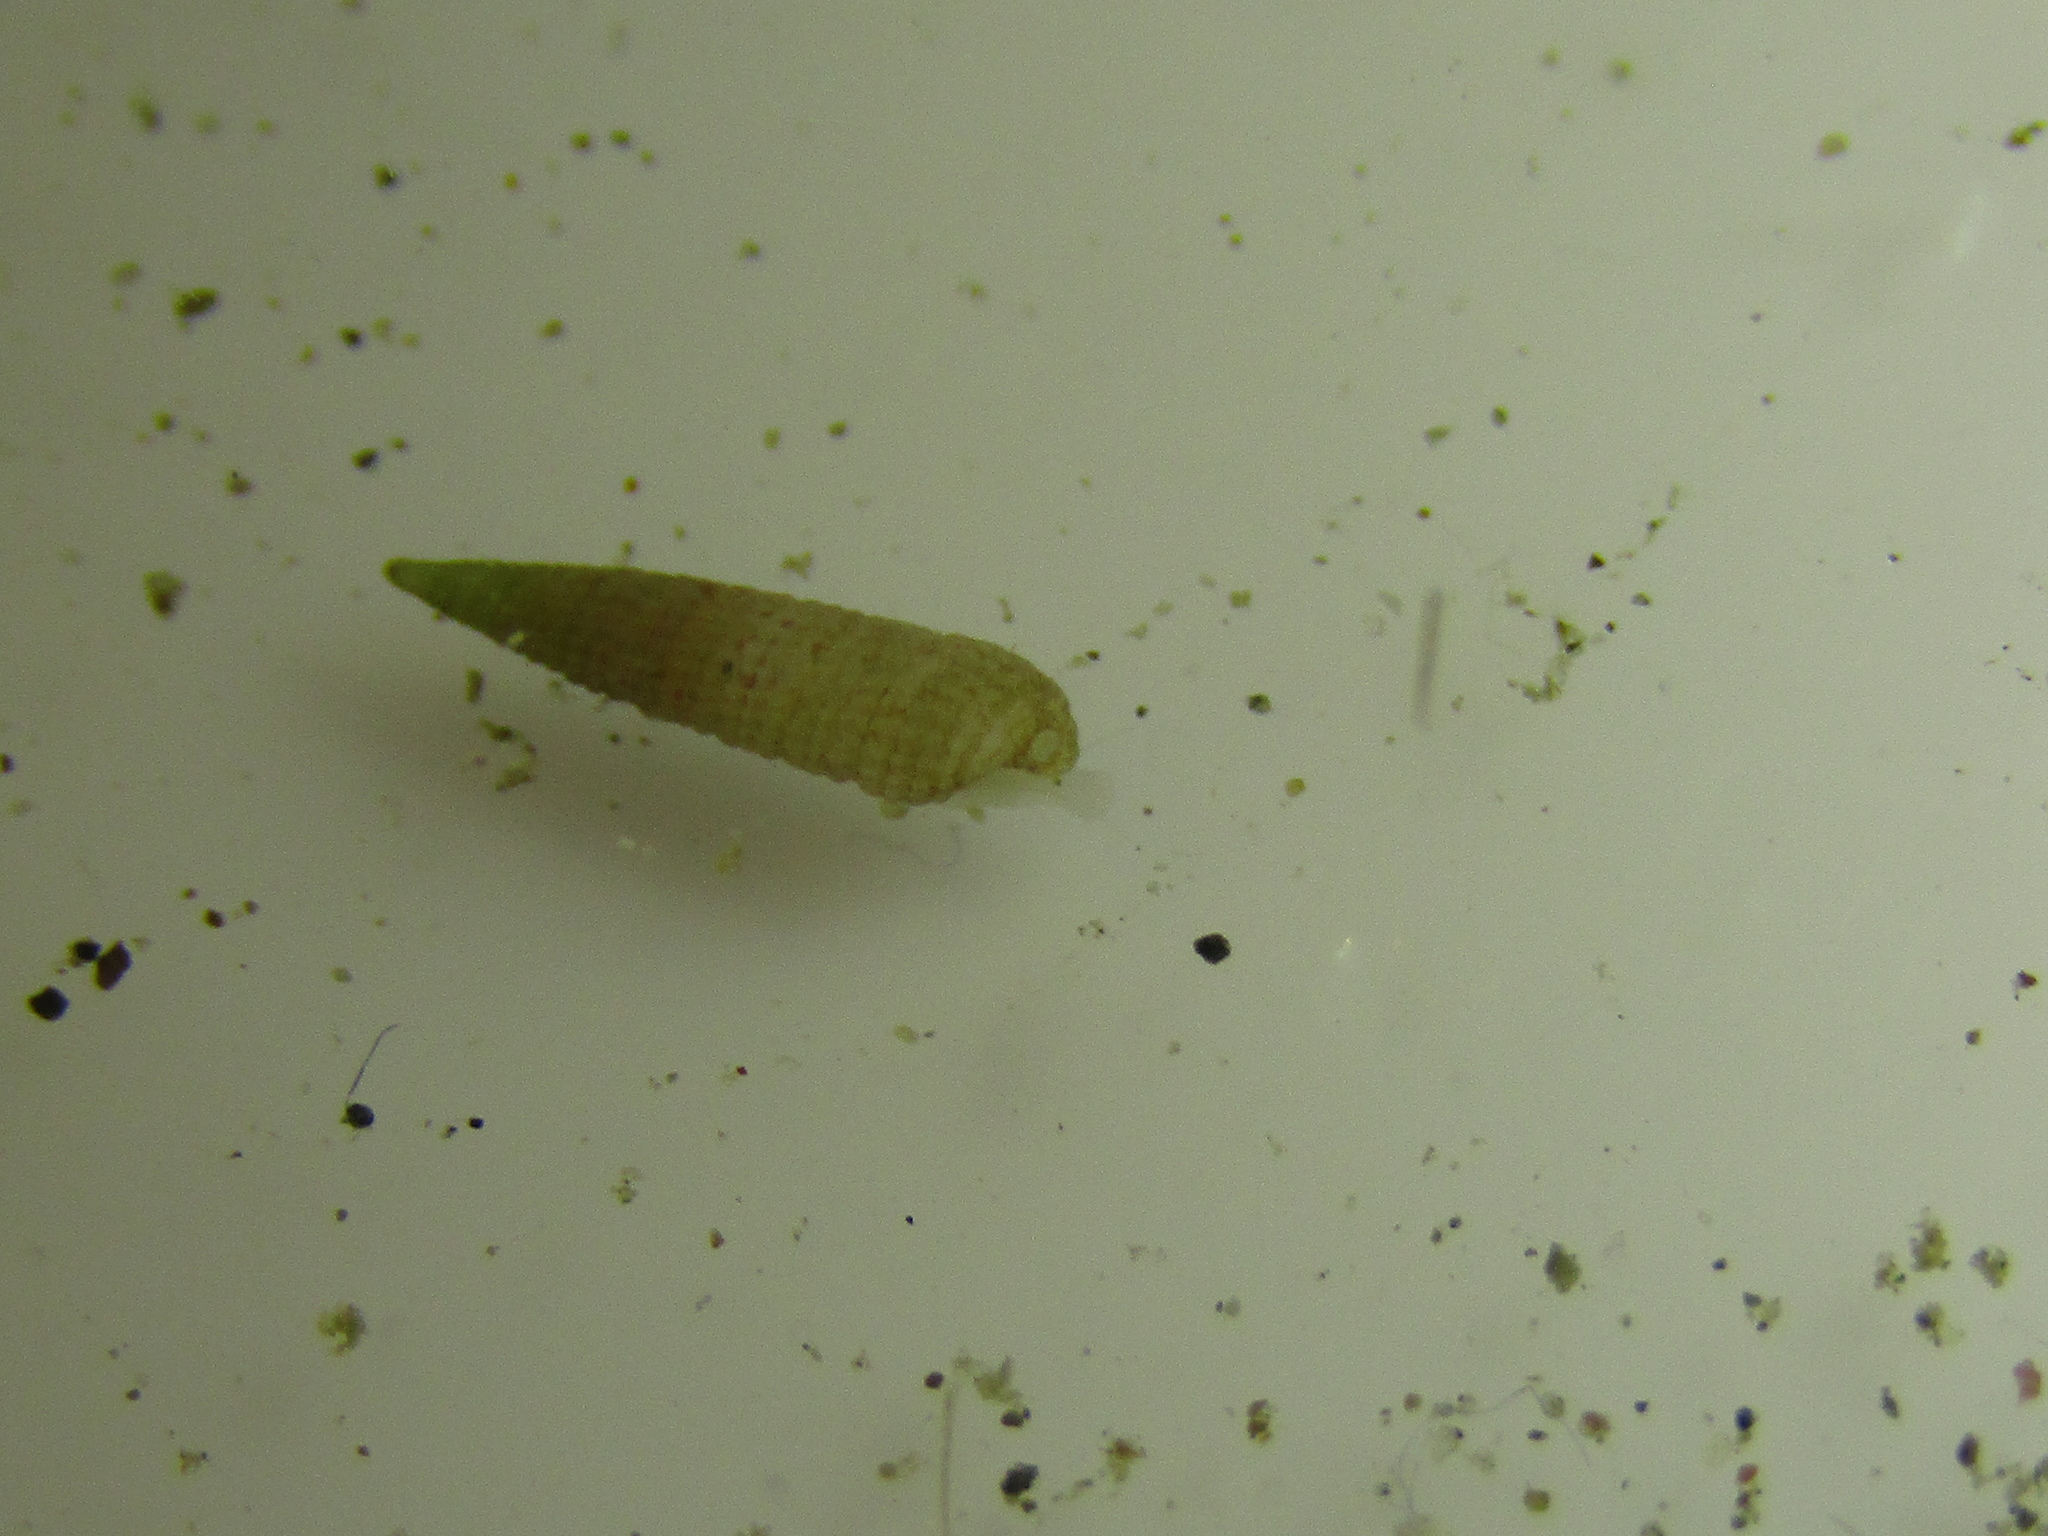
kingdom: Animalia
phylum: Mollusca
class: Gastropoda
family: Triphoridae
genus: Bouchetriphora
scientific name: Bouchetriphora pallida
